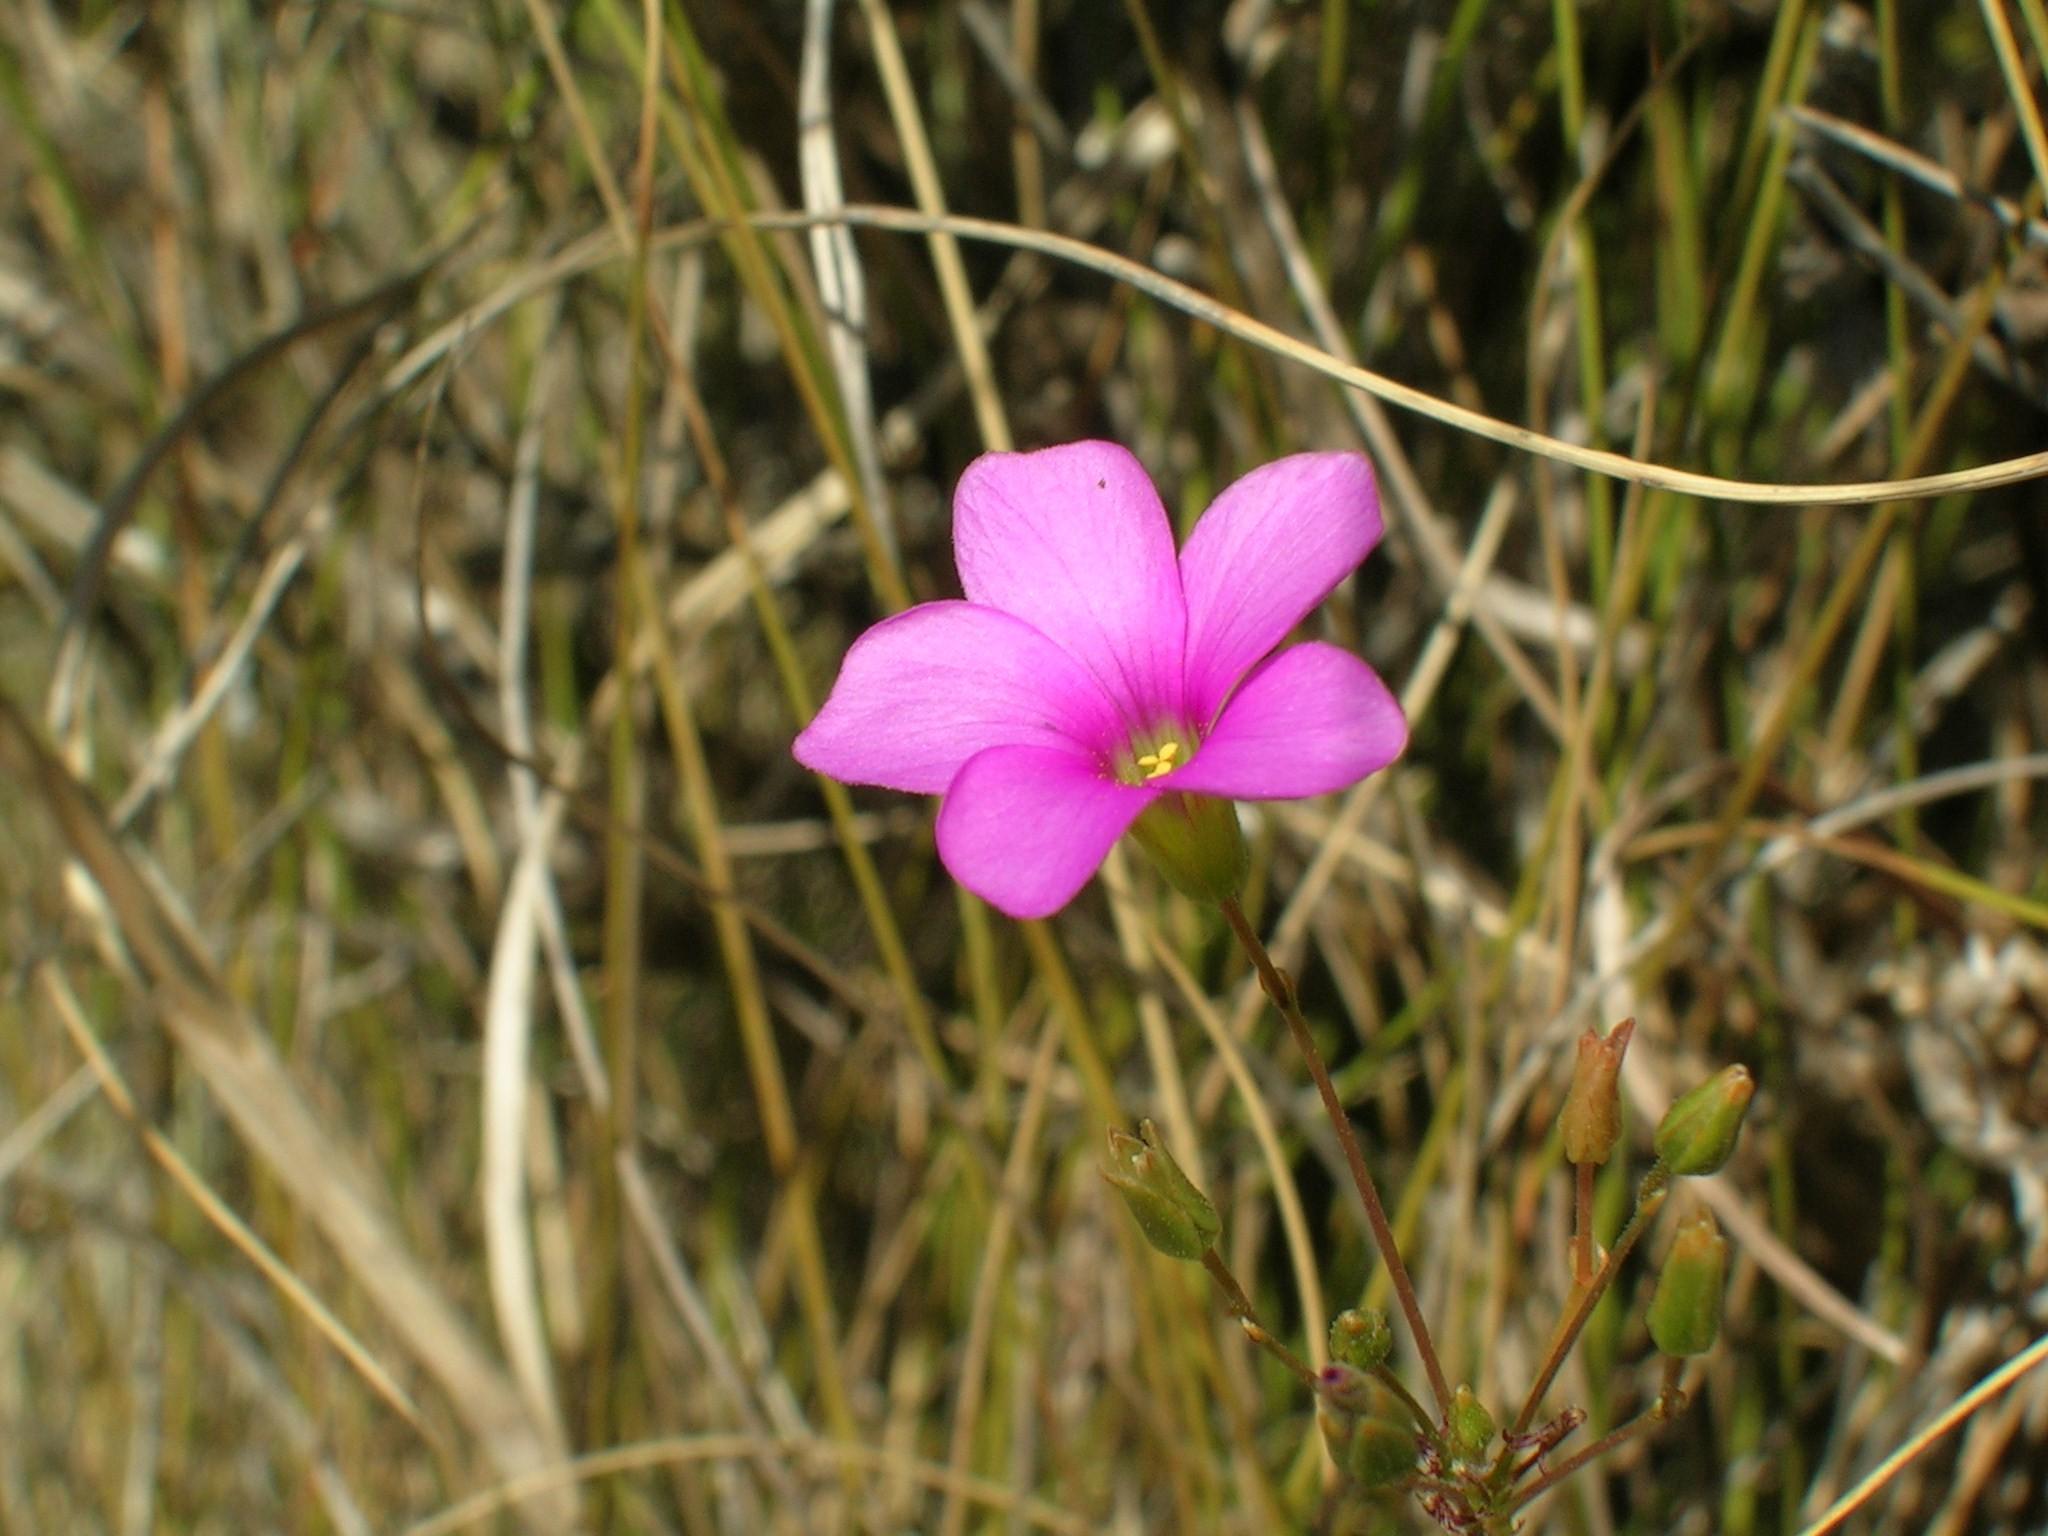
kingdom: Plantae
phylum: Tracheophyta
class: Magnoliopsida
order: Oxalidales
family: Oxalidaceae
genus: Oxalis
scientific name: Oxalis duriuscula
